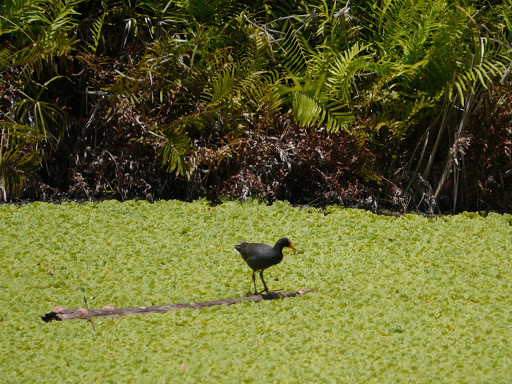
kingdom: Animalia
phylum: Chordata
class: Aves
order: Gruiformes
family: Rallidae
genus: Gallinula
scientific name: Gallinula chloropus
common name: Common moorhen
